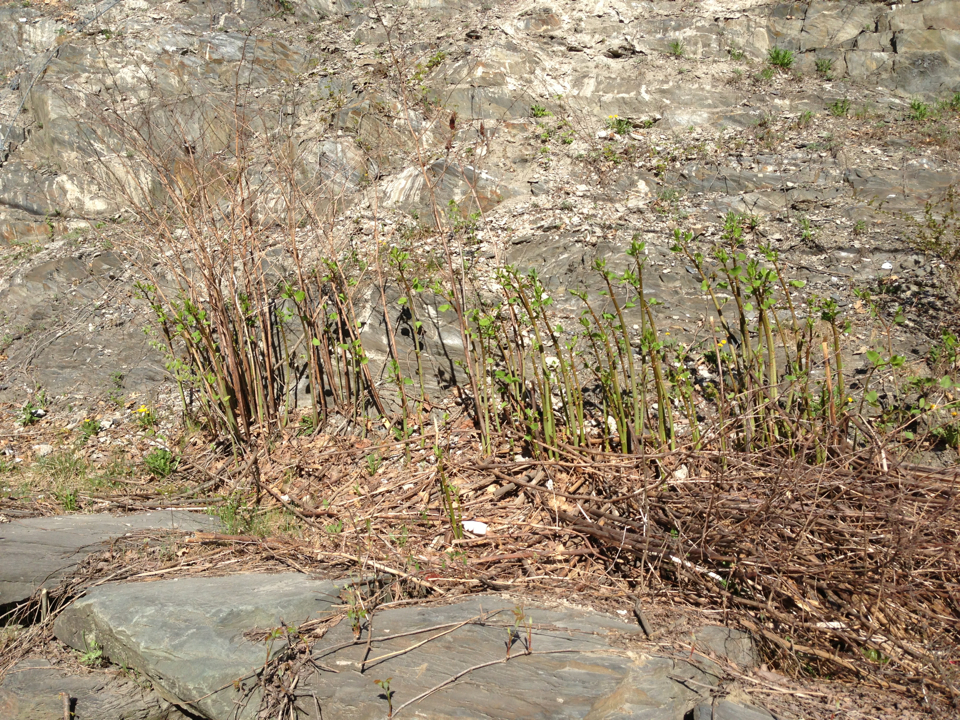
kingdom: Plantae
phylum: Tracheophyta
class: Magnoliopsida
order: Caryophyllales
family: Polygonaceae
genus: Reynoutria
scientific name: Reynoutria japonica
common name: Japanese knotweed
